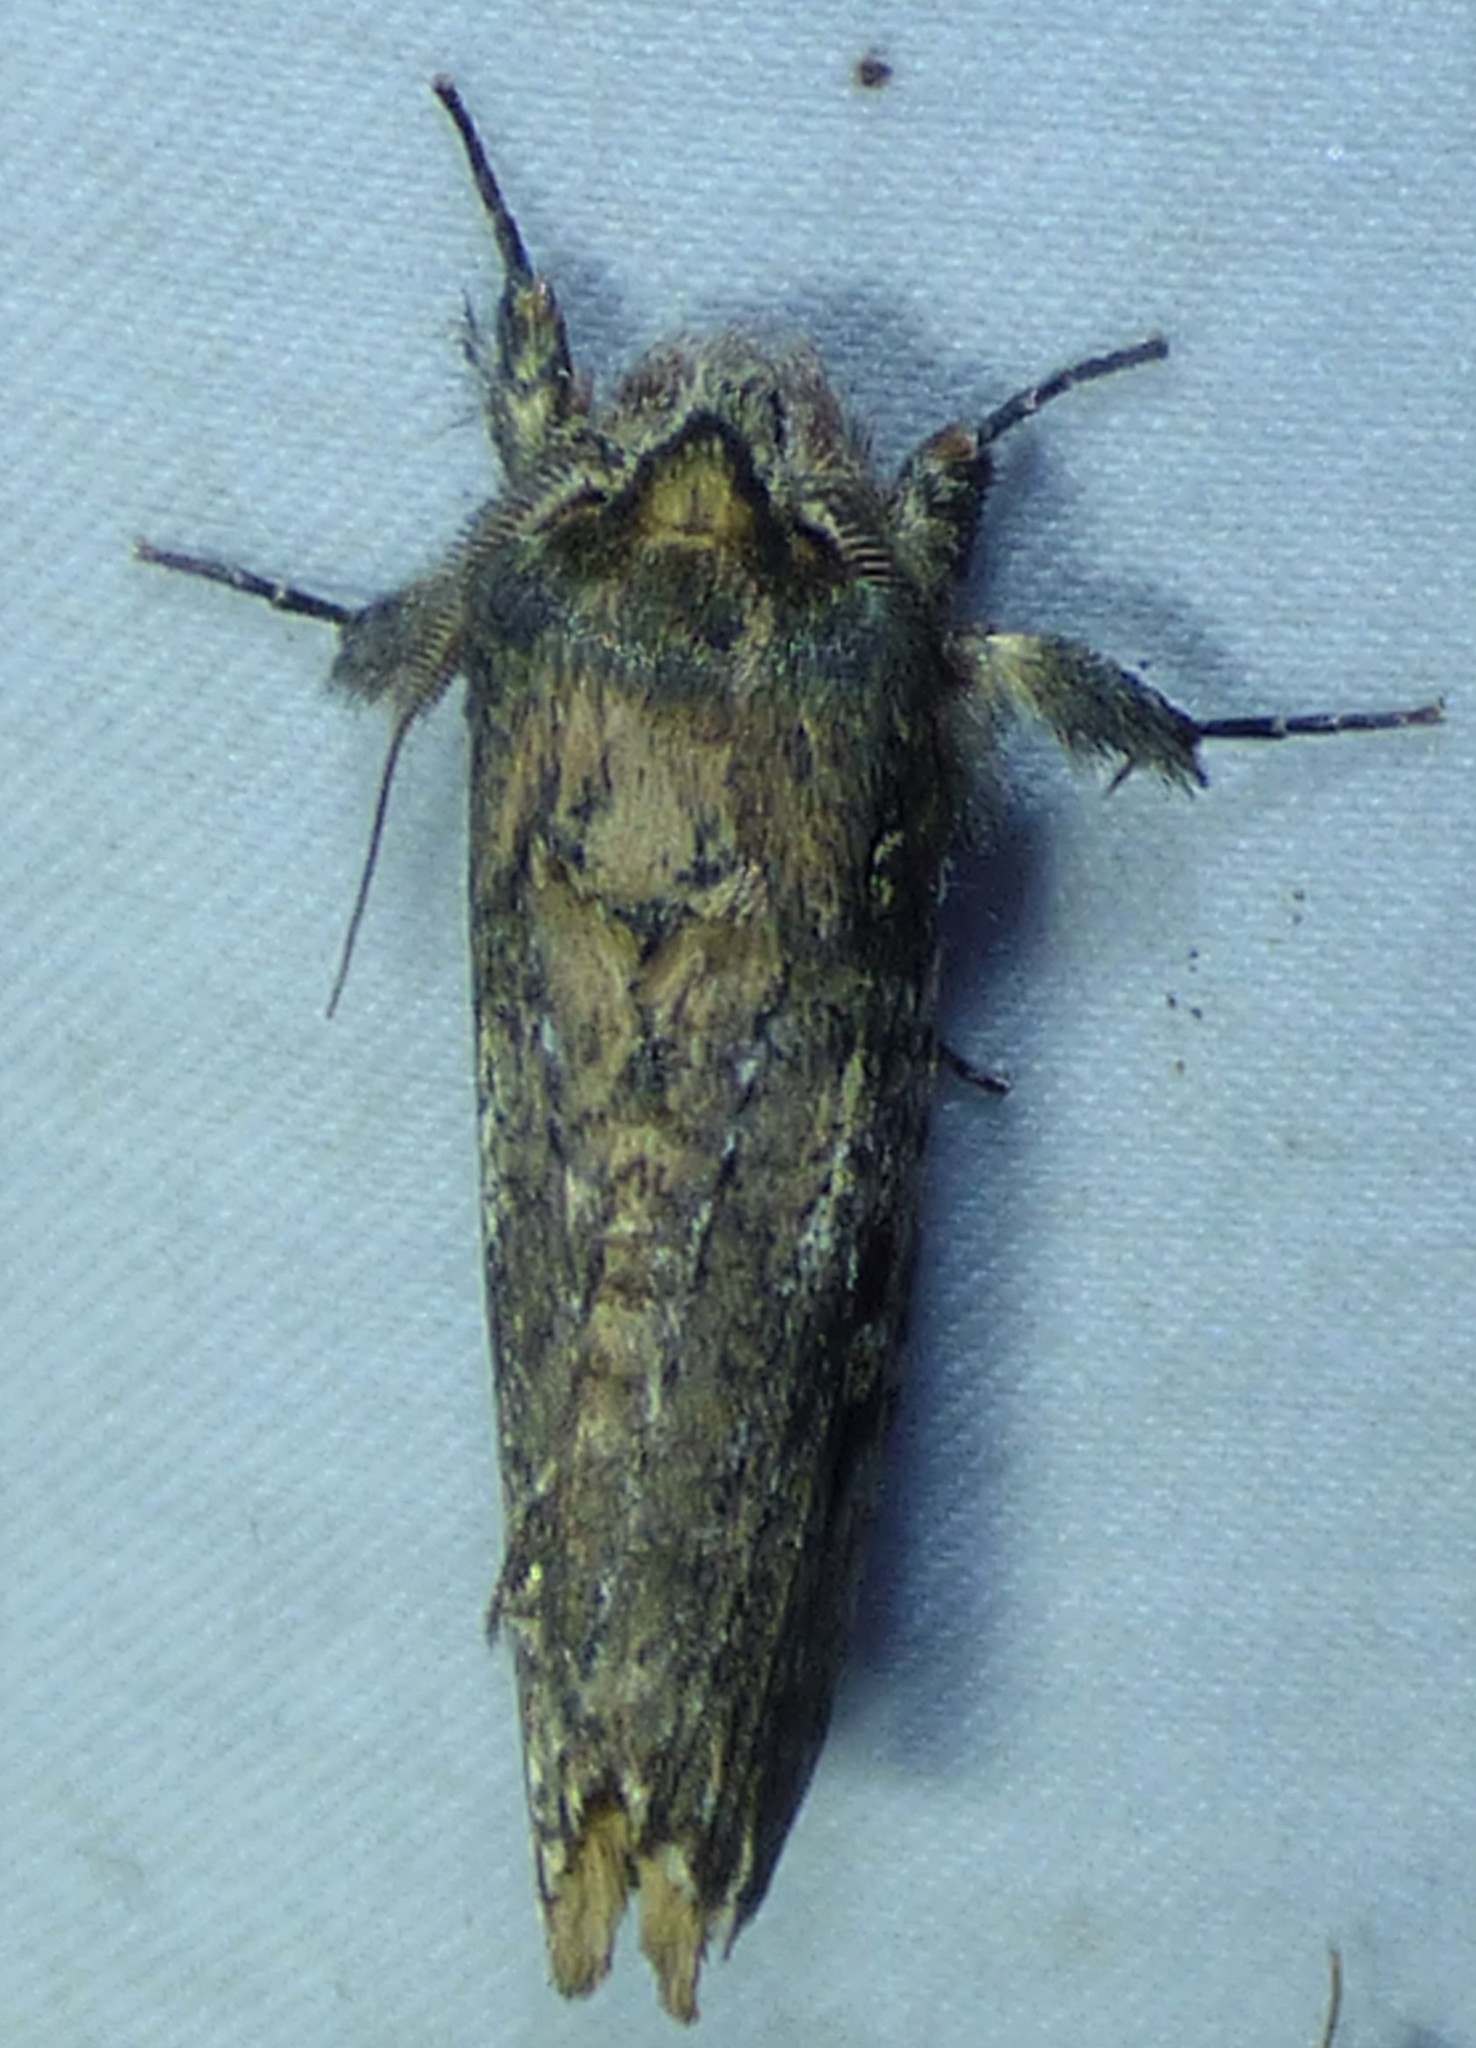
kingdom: Animalia
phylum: Arthropoda
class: Insecta
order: Lepidoptera
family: Notodontidae
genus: Schizura
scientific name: Schizura ipomaeae
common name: Morning-glory prominent
